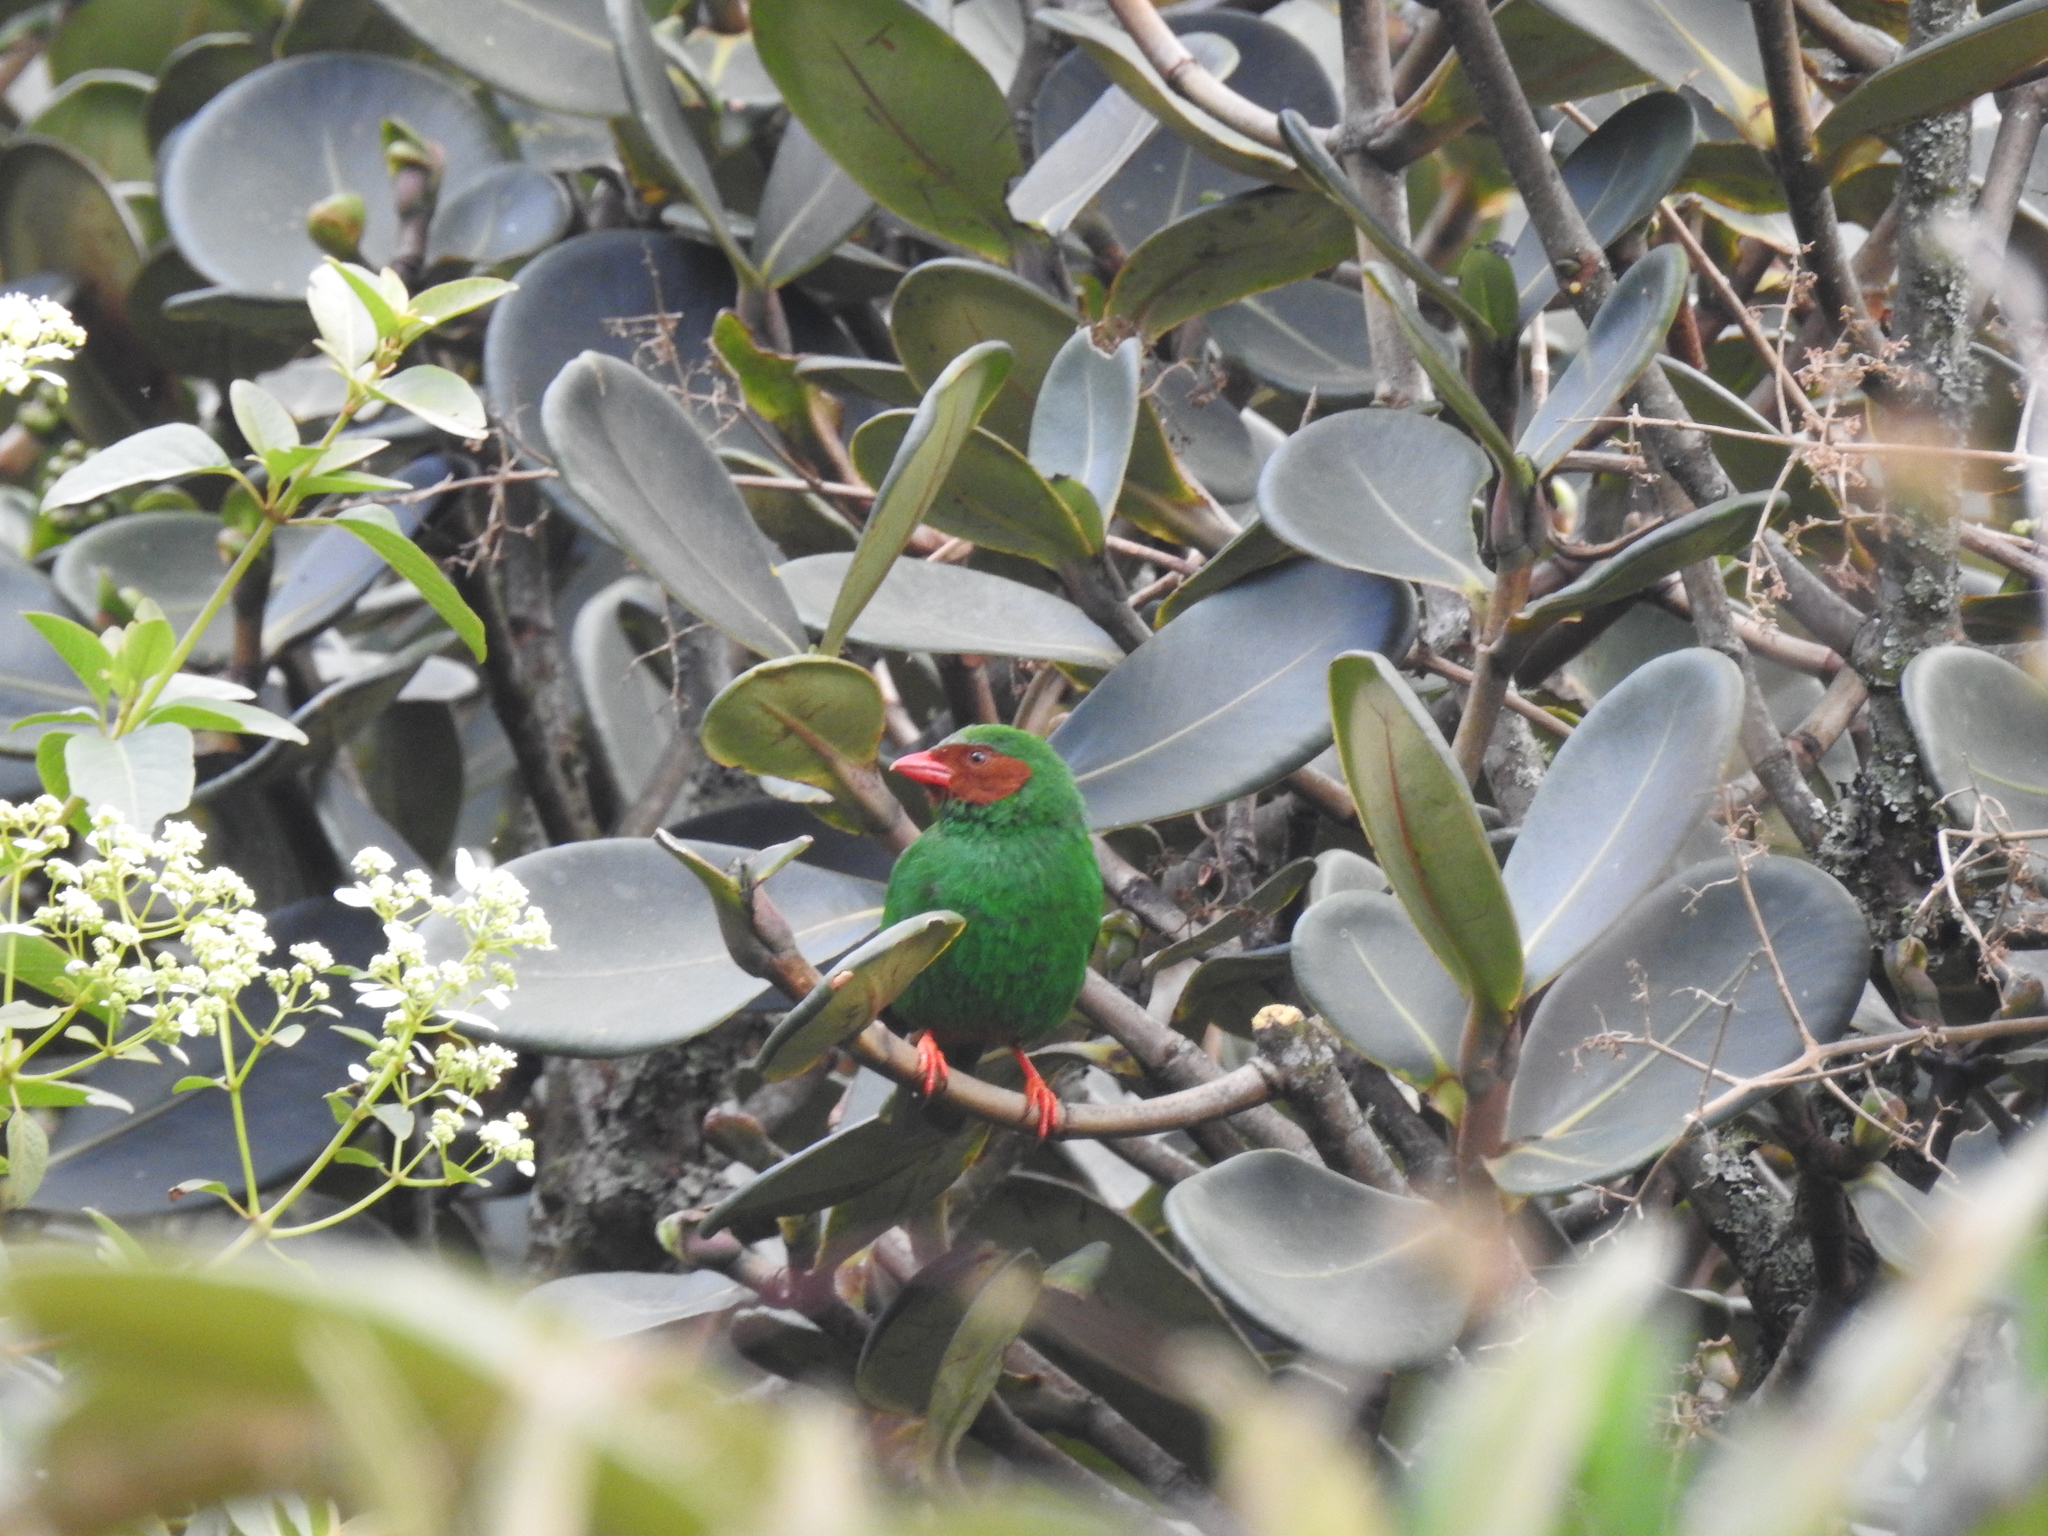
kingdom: Animalia
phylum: Chordata
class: Aves
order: Passeriformes
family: Thraupidae
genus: Chlorornis
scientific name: Chlorornis riefferii
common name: Grass-green tanager
